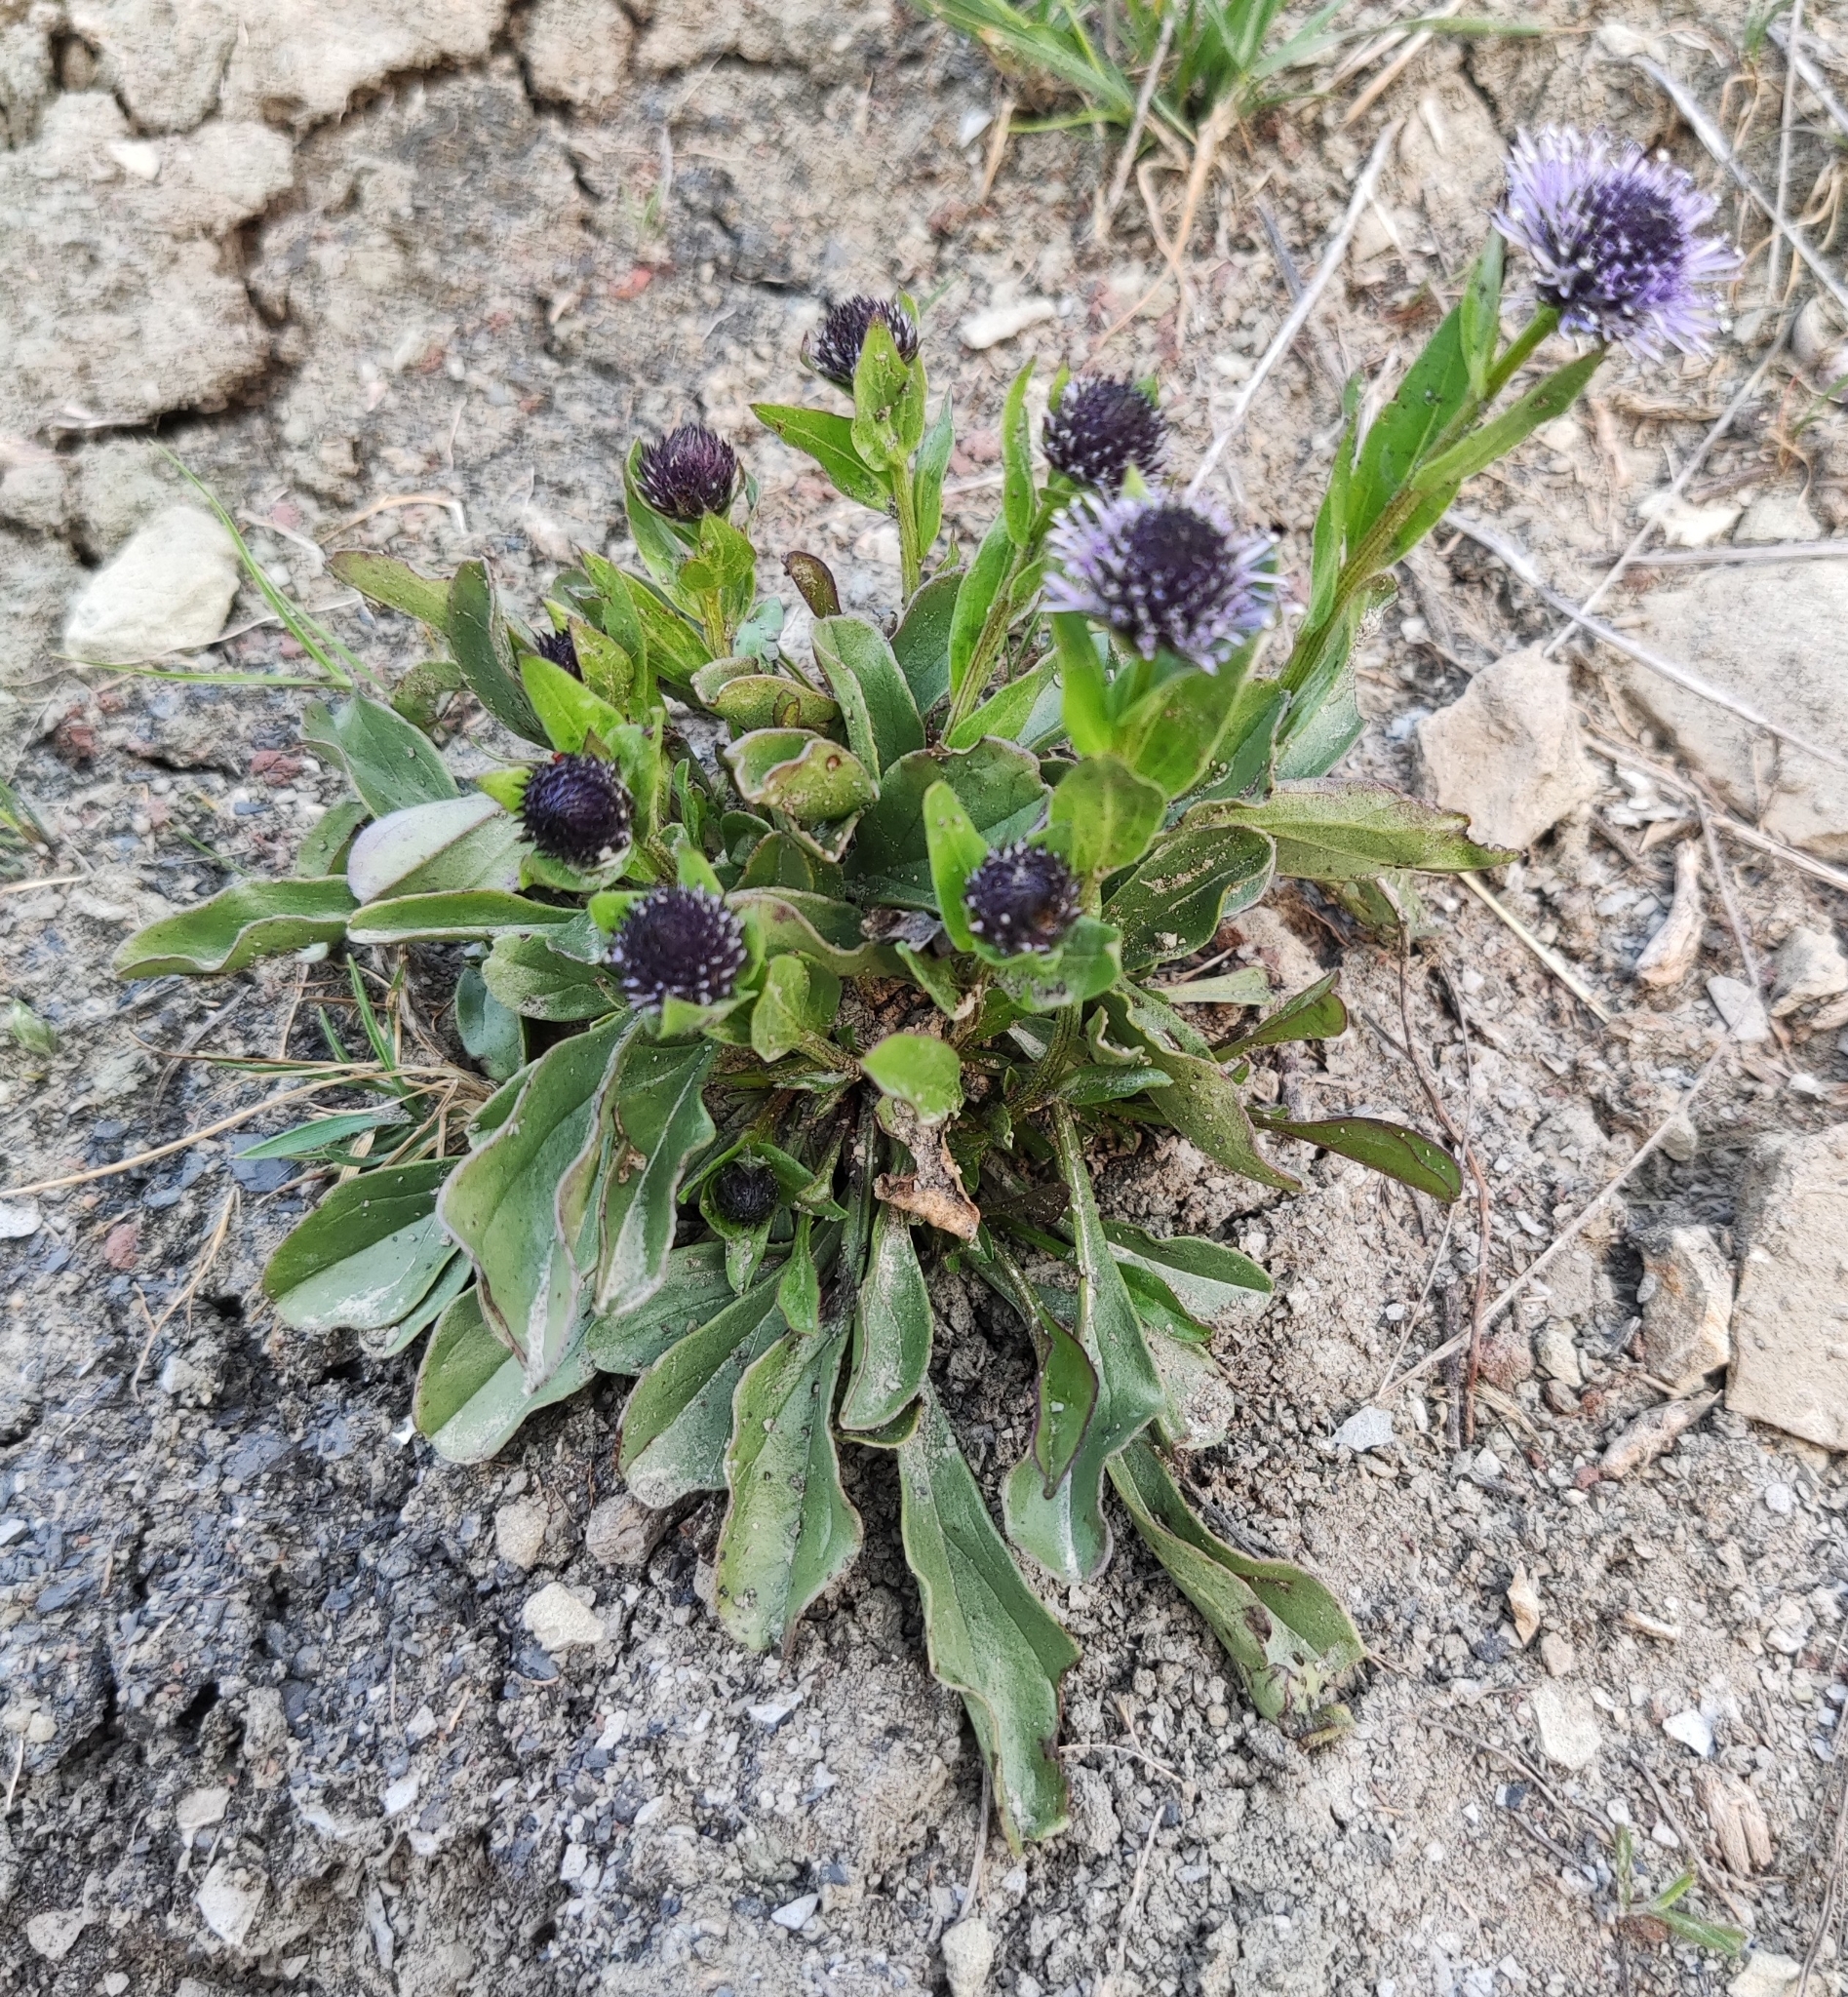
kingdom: Plantae
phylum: Tracheophyta
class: Magnoliopsida
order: Lamiales
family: Plantaginaceae
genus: Globularia
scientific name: Globularia bisnagarica
